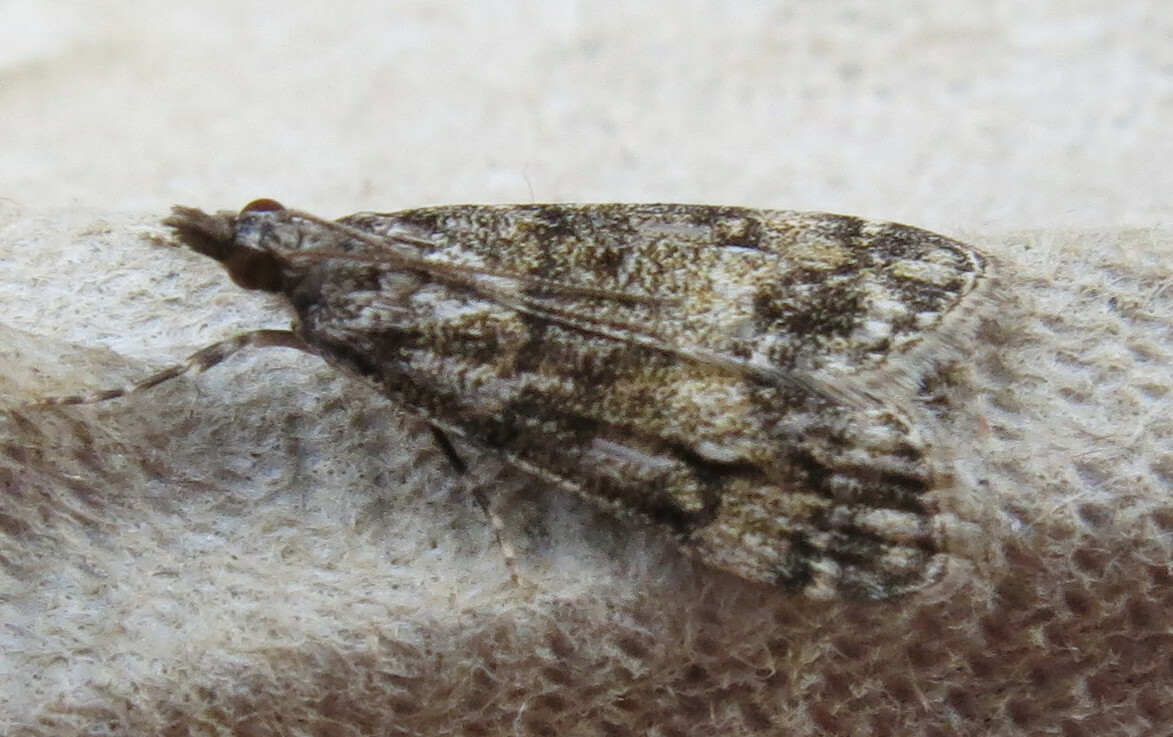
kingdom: Animalia
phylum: Arthropoda
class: Insecta
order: Lepidoptera
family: Crambidae
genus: Eudonia
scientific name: Eudonia lacustrata
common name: Little grey
